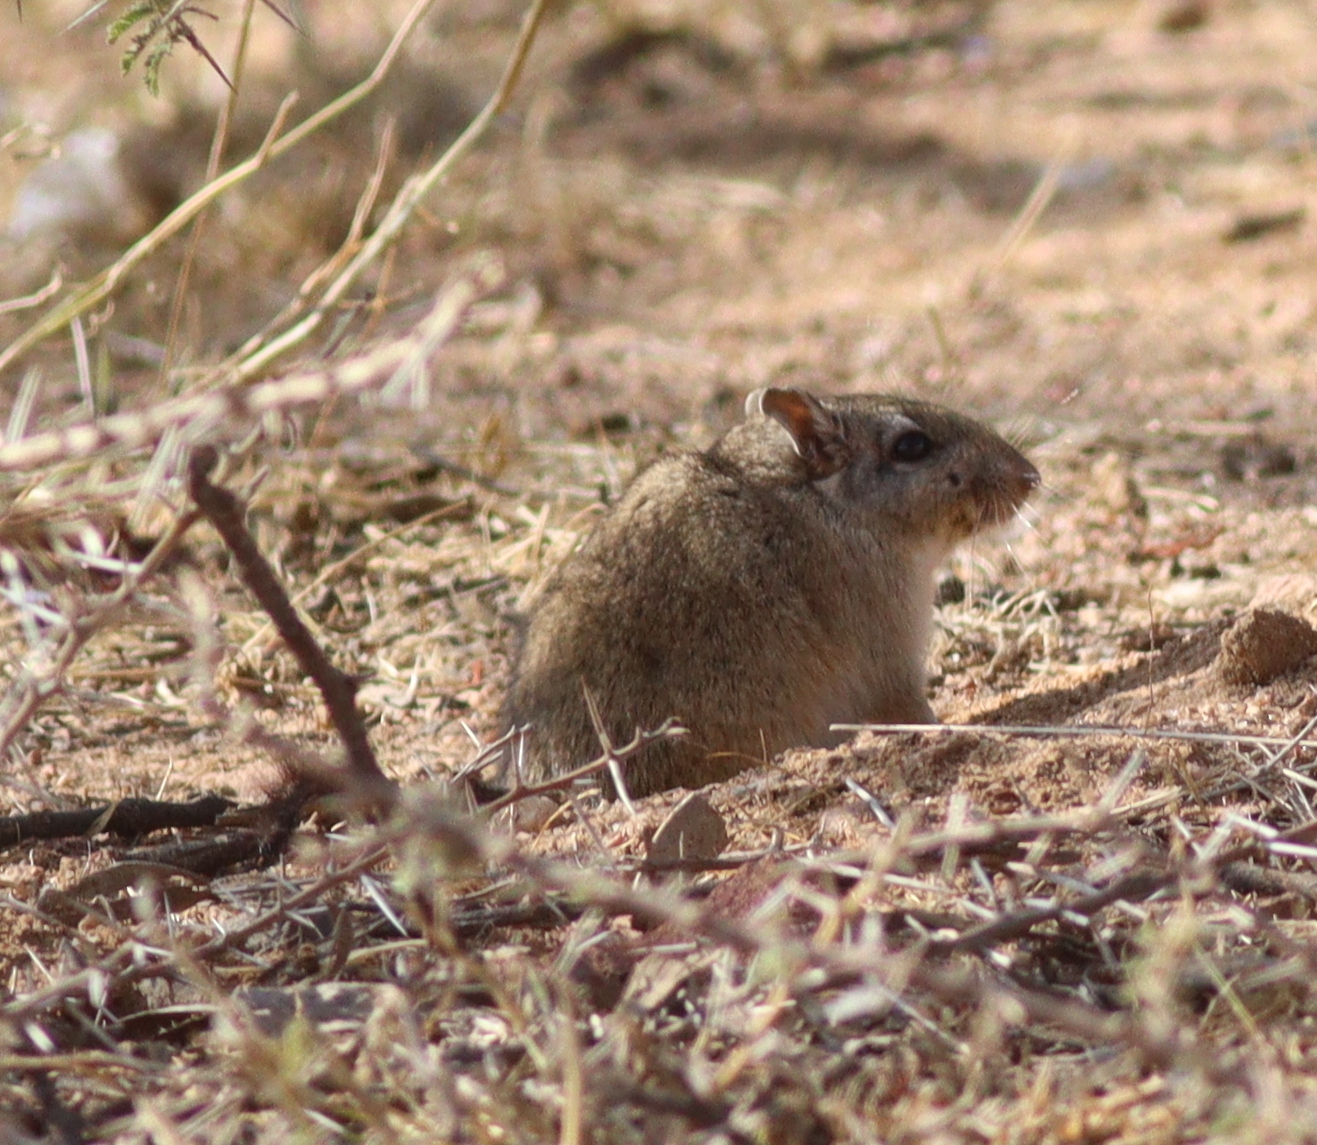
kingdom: Animalia
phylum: Chordata
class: Mammalia
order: Rodentia
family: Muridae
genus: Meriones
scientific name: Meriones rex
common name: King jird
